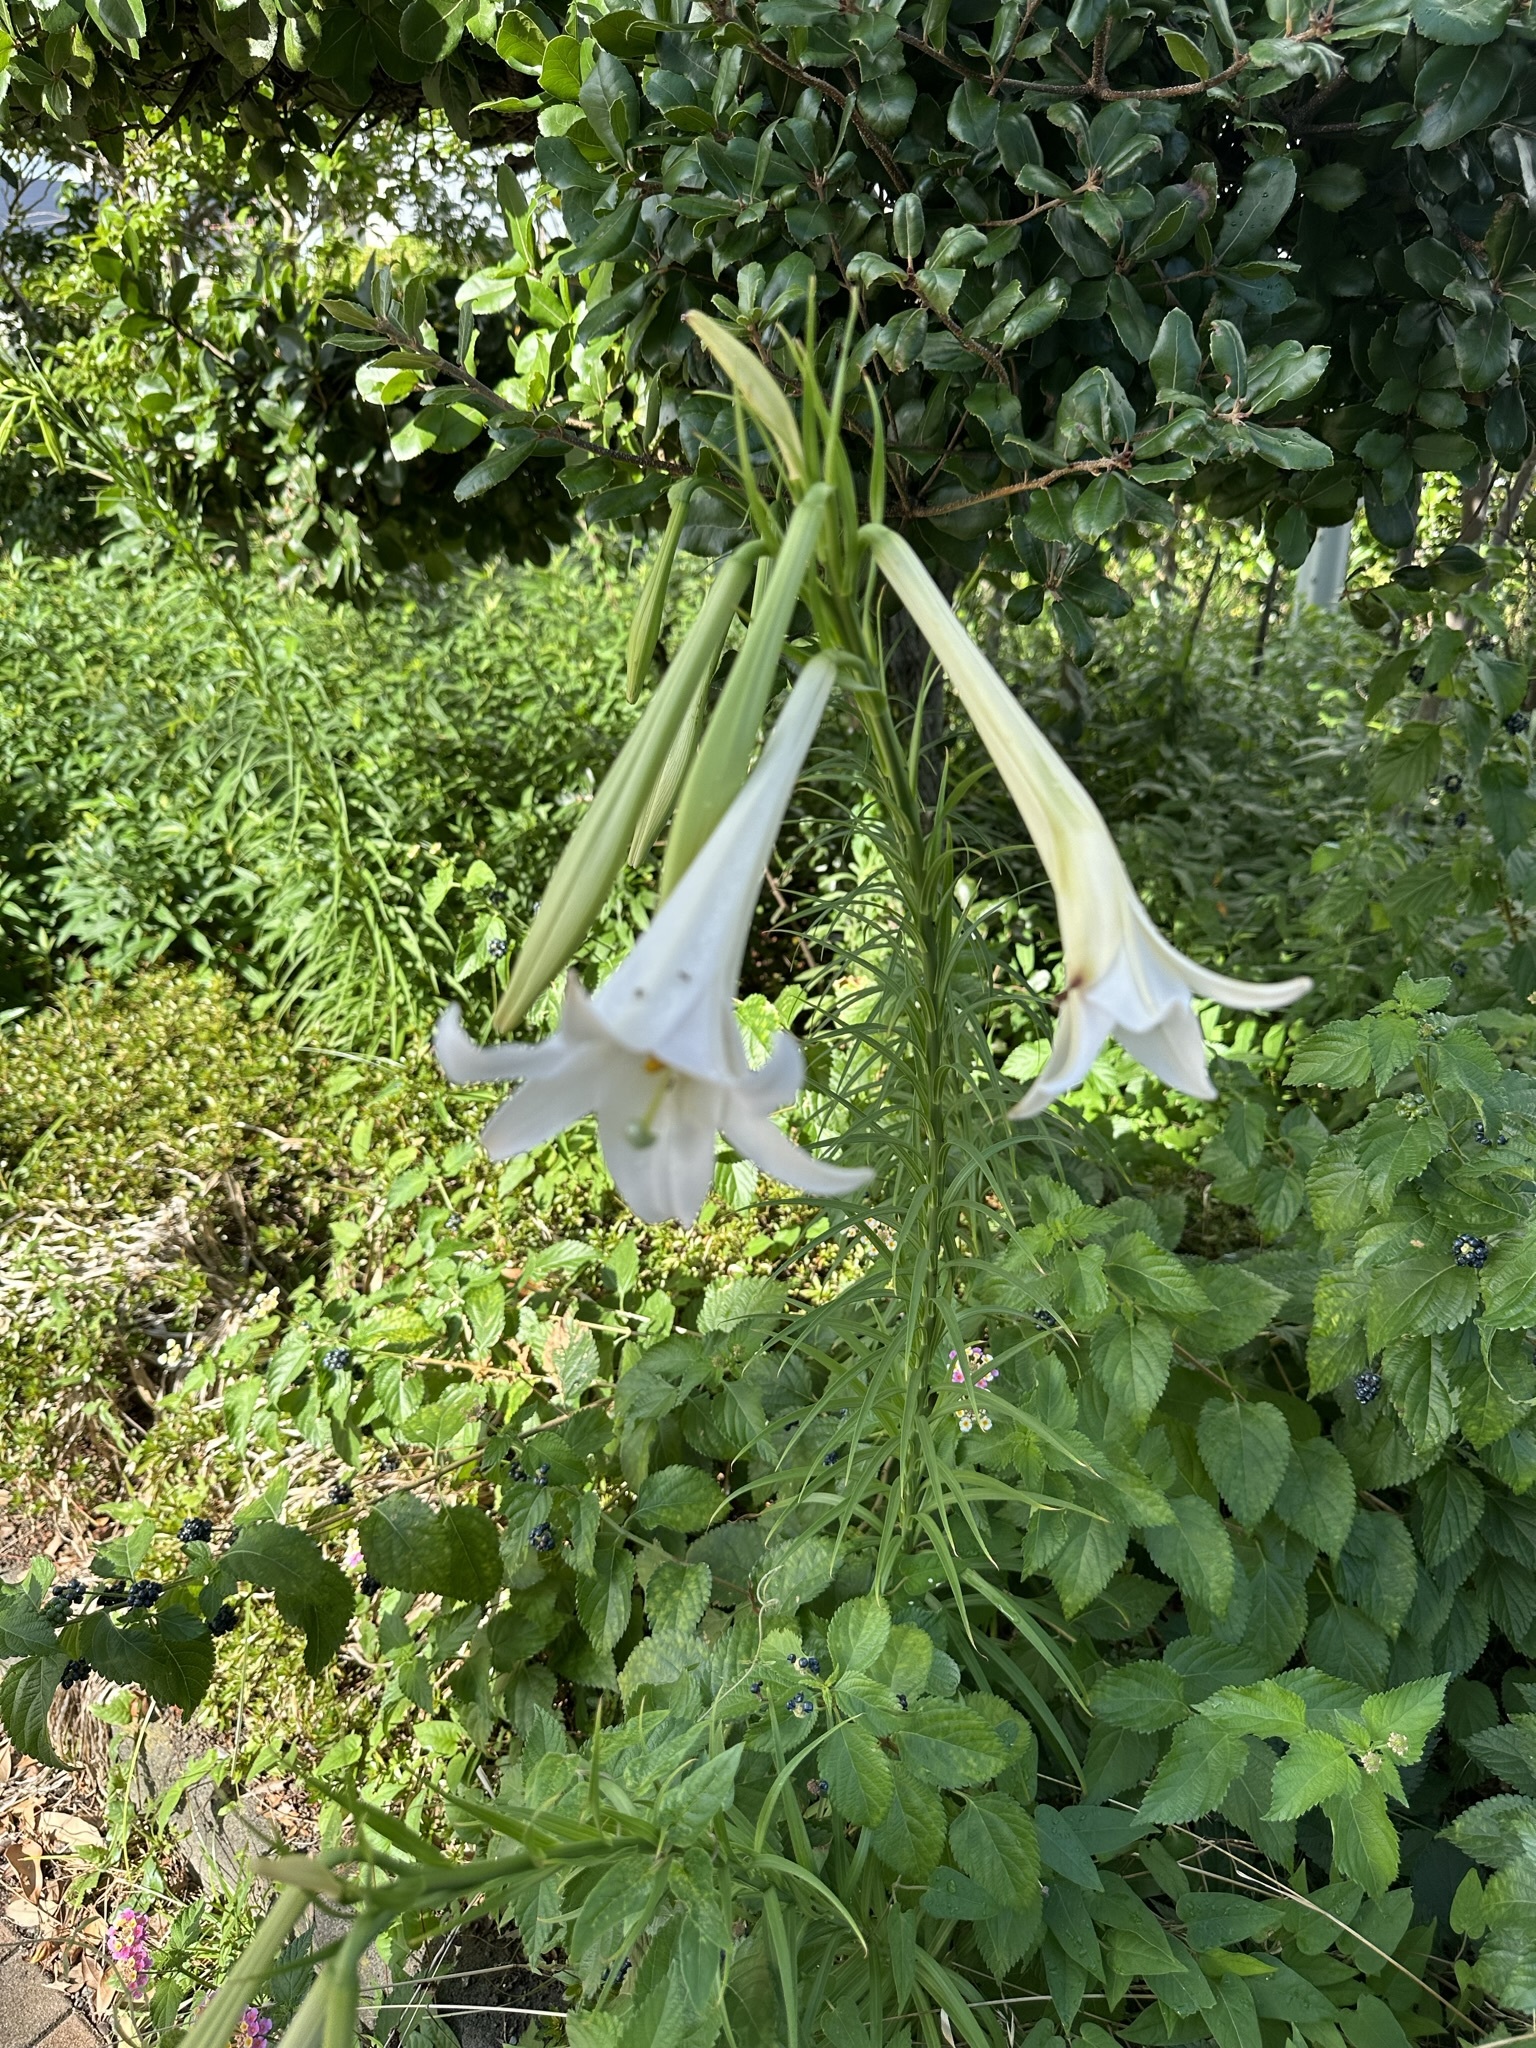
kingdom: Plantae
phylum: Tracheophyta
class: Liliopsida
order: Liliales
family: Liliaceae
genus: Lilium
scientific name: Lilium formosanum
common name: Formosa lily
